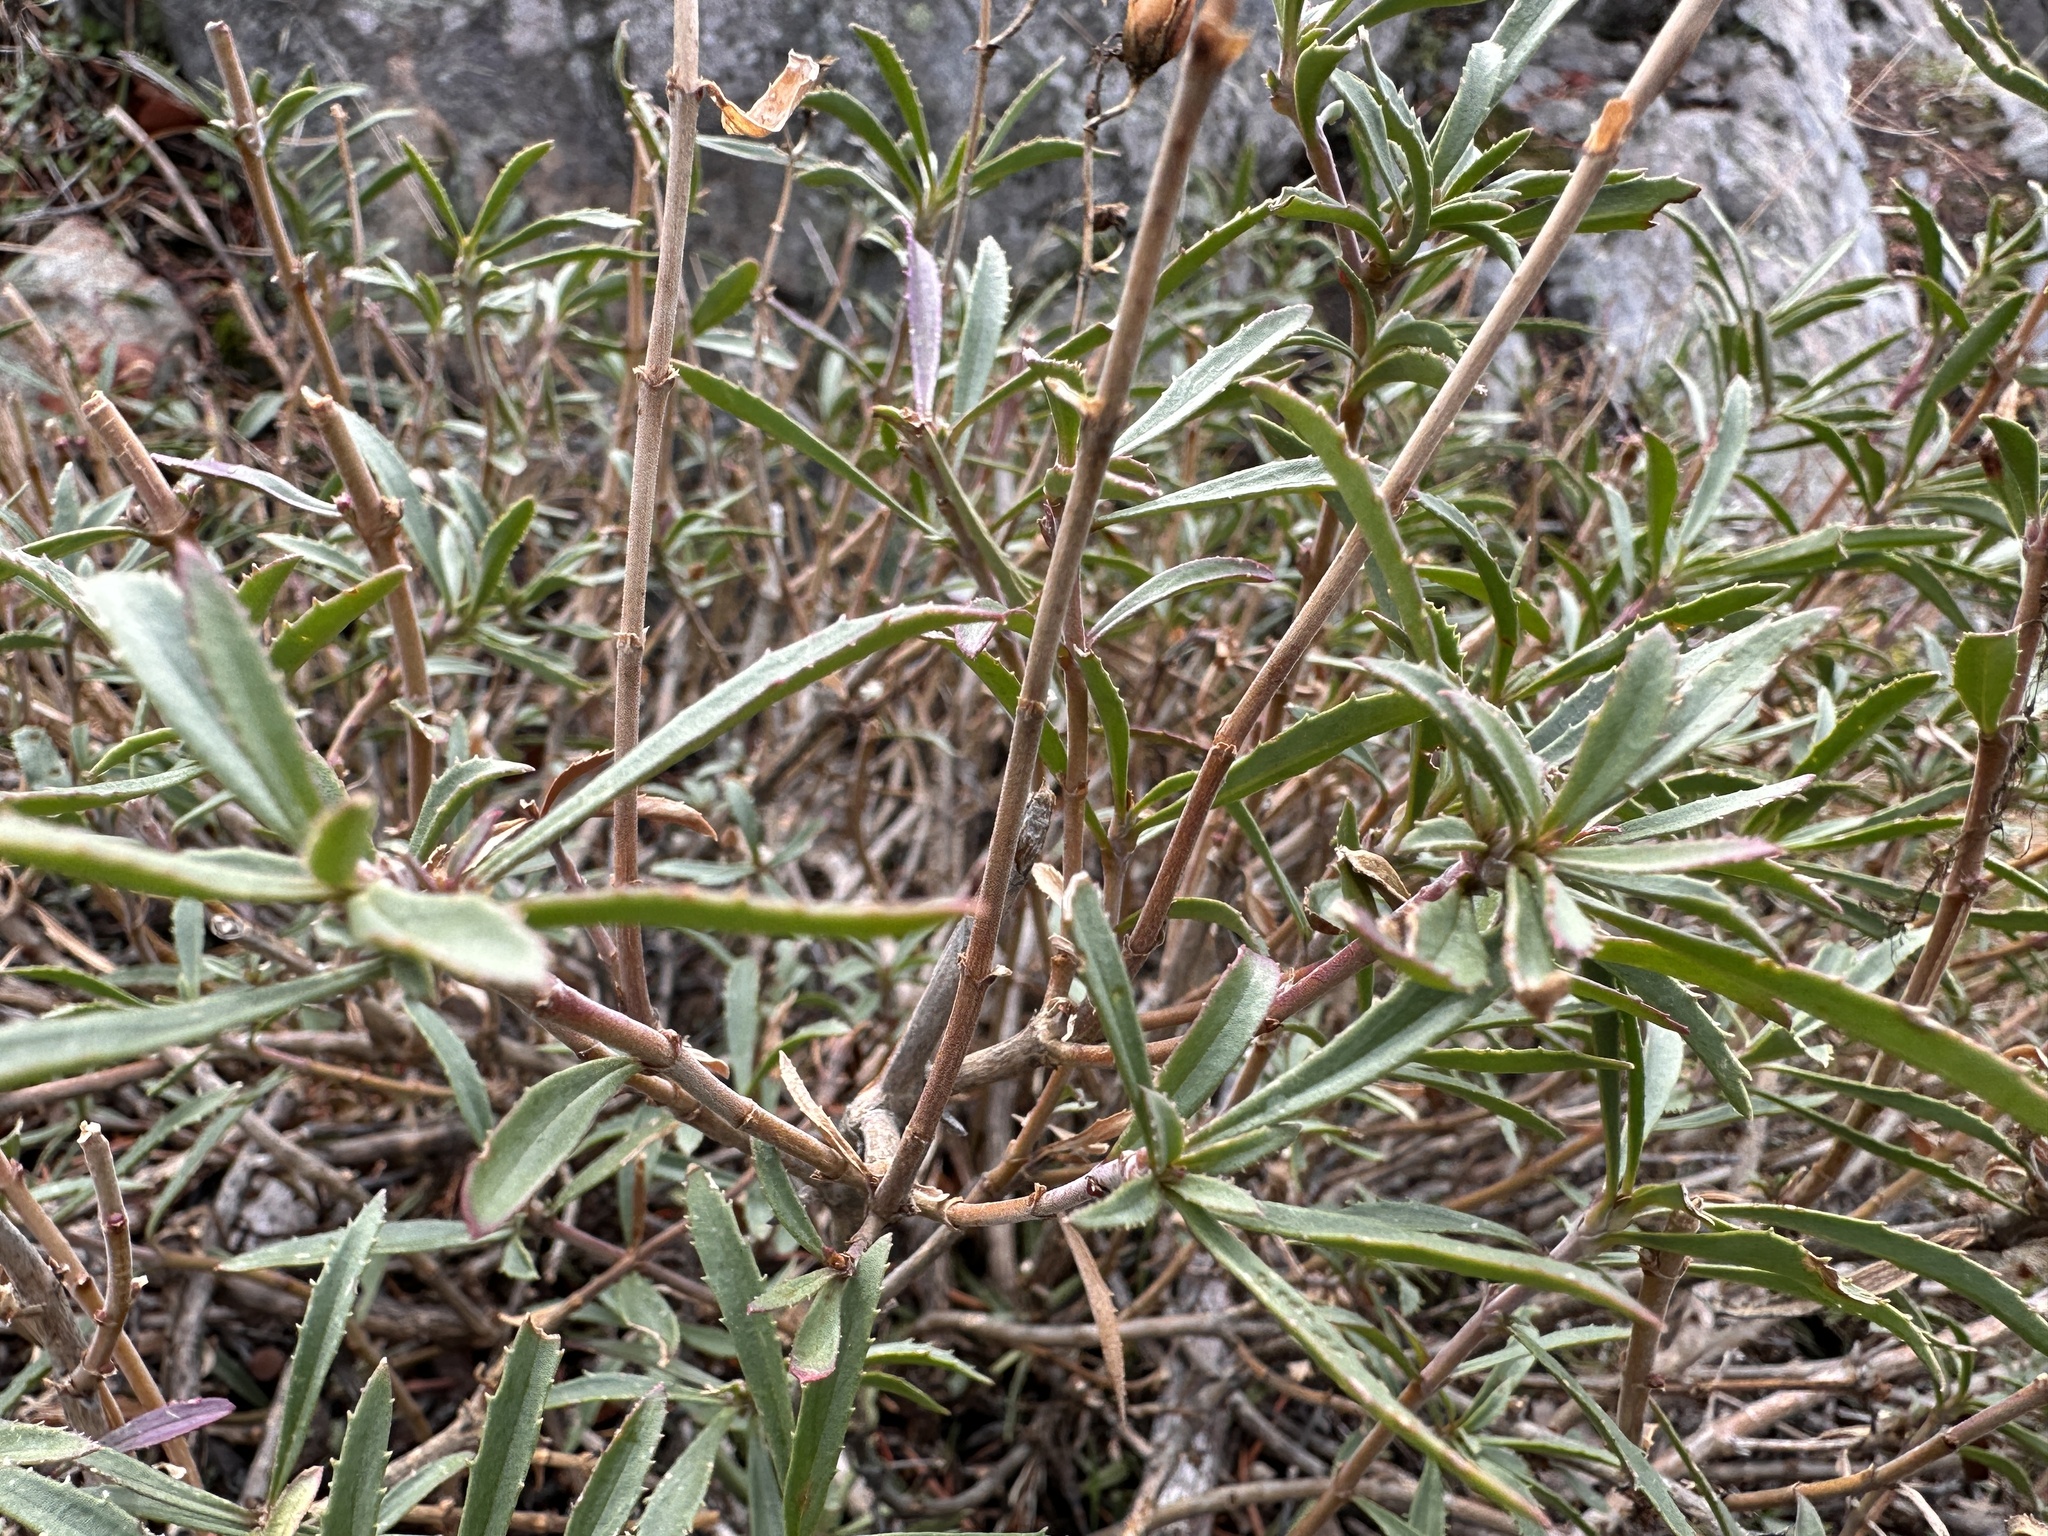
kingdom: Plantae
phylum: Tracheophyta
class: Magnoliopsida
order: Lamiales
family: Plantaginaceae
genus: Penstemon
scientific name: Penstemon fruticosus
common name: Bush penstemon
